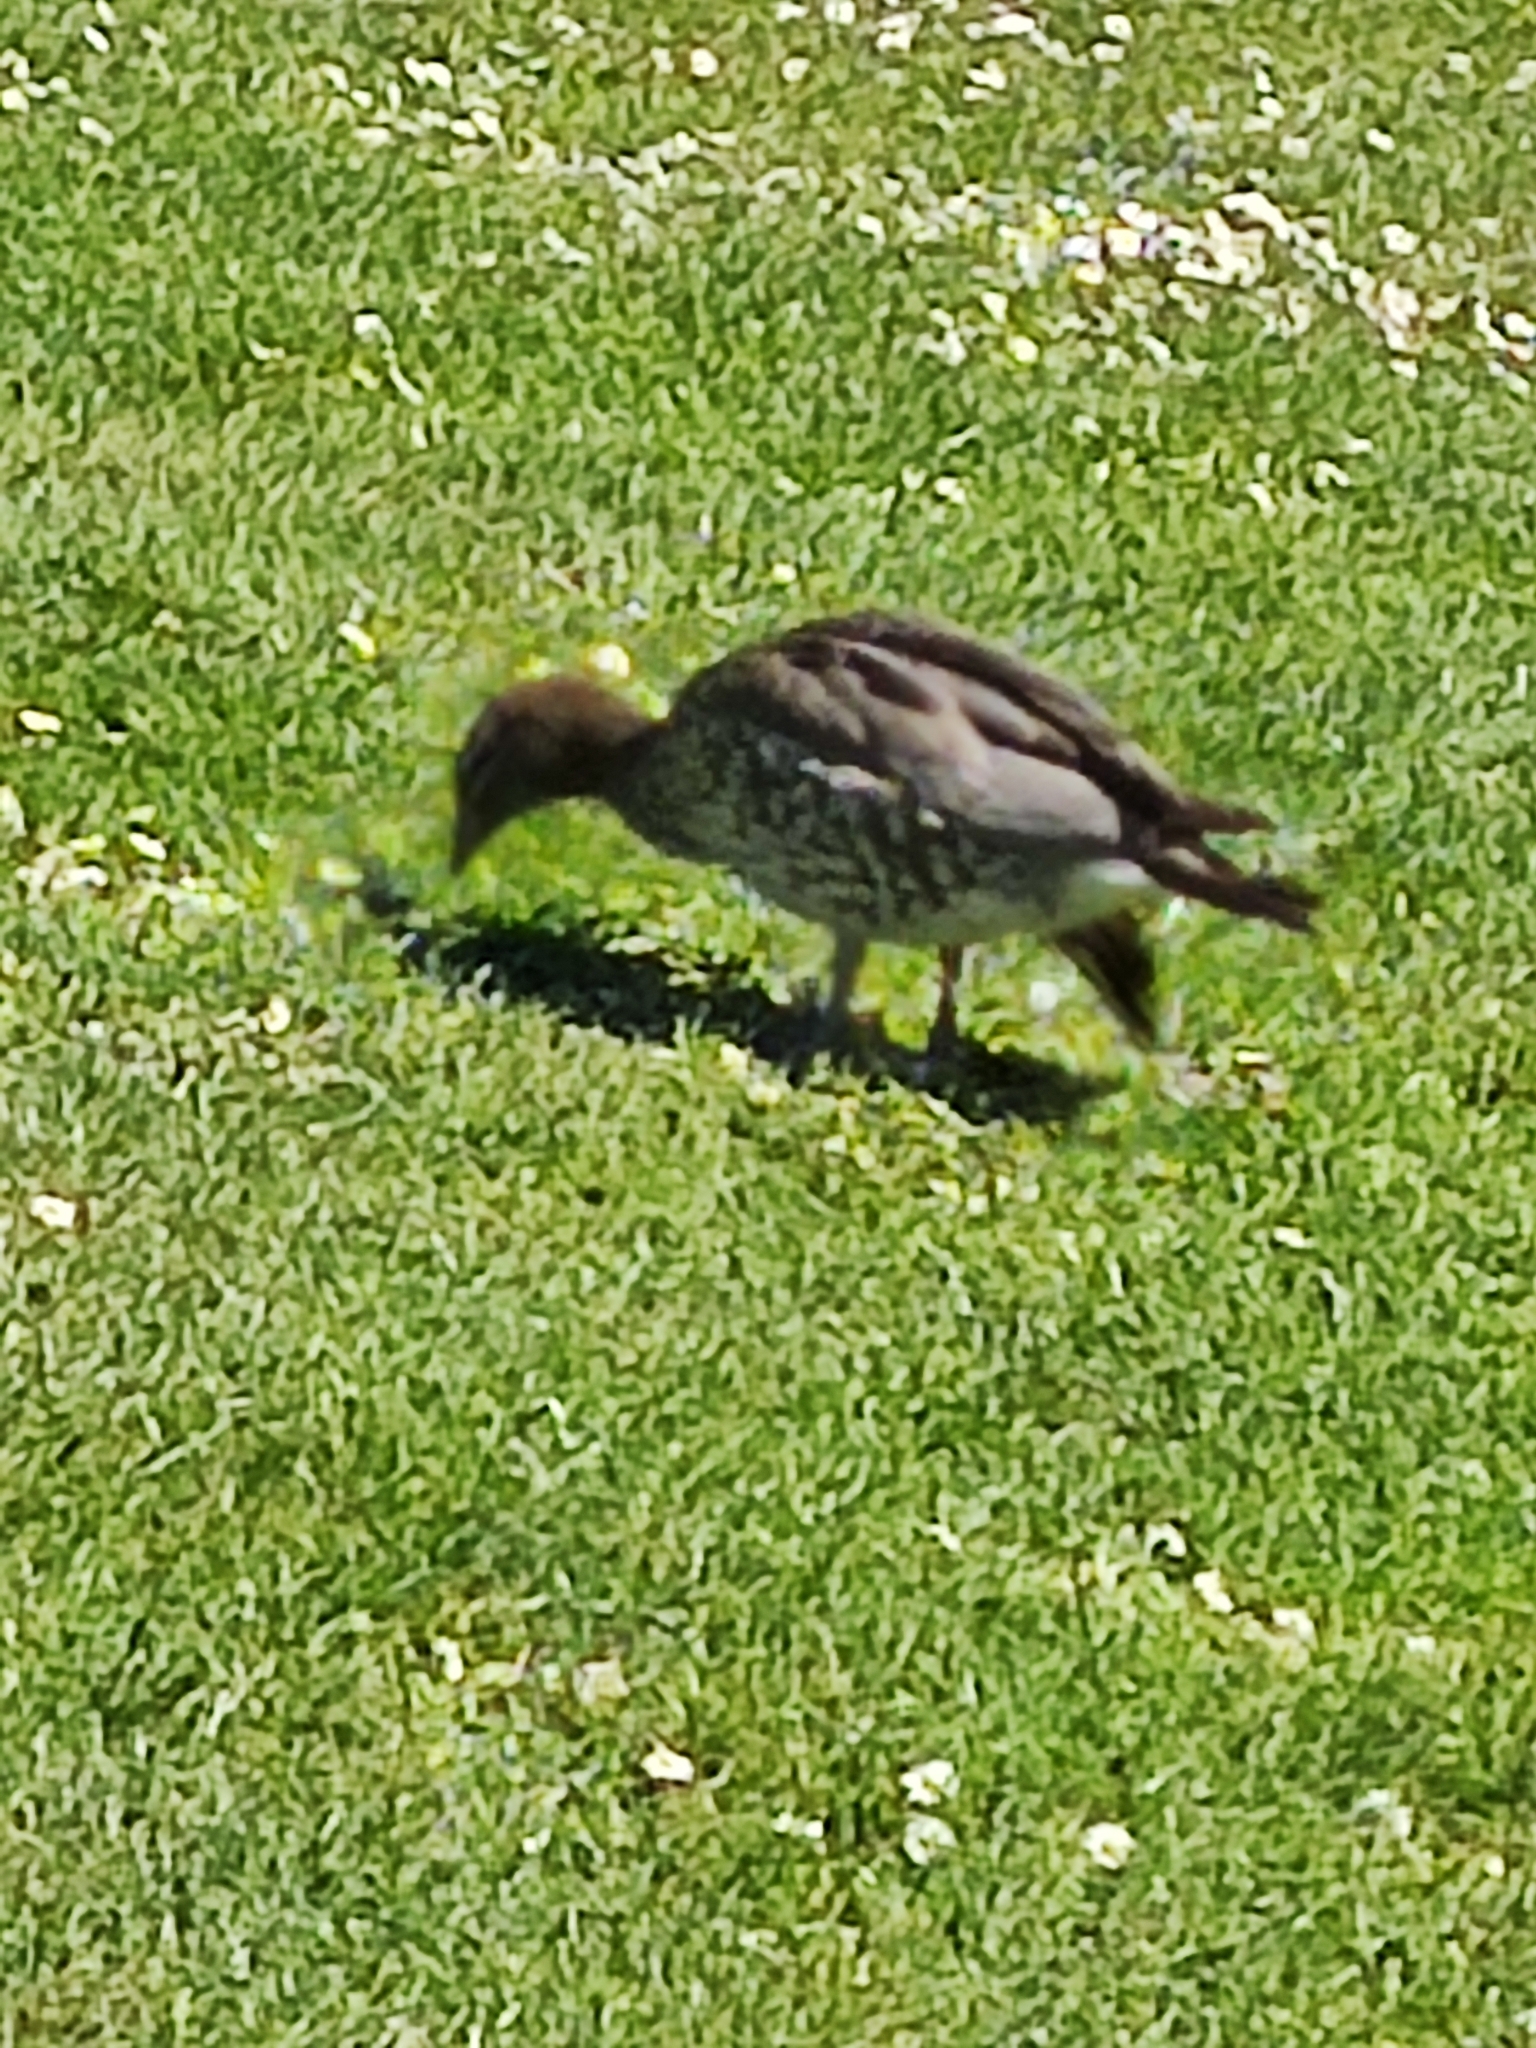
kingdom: Animalia
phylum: Chordata
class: Aves
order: Anseriformes
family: Anatidae
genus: Chenonetta
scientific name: Chenonetta jubata
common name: Maned duck
